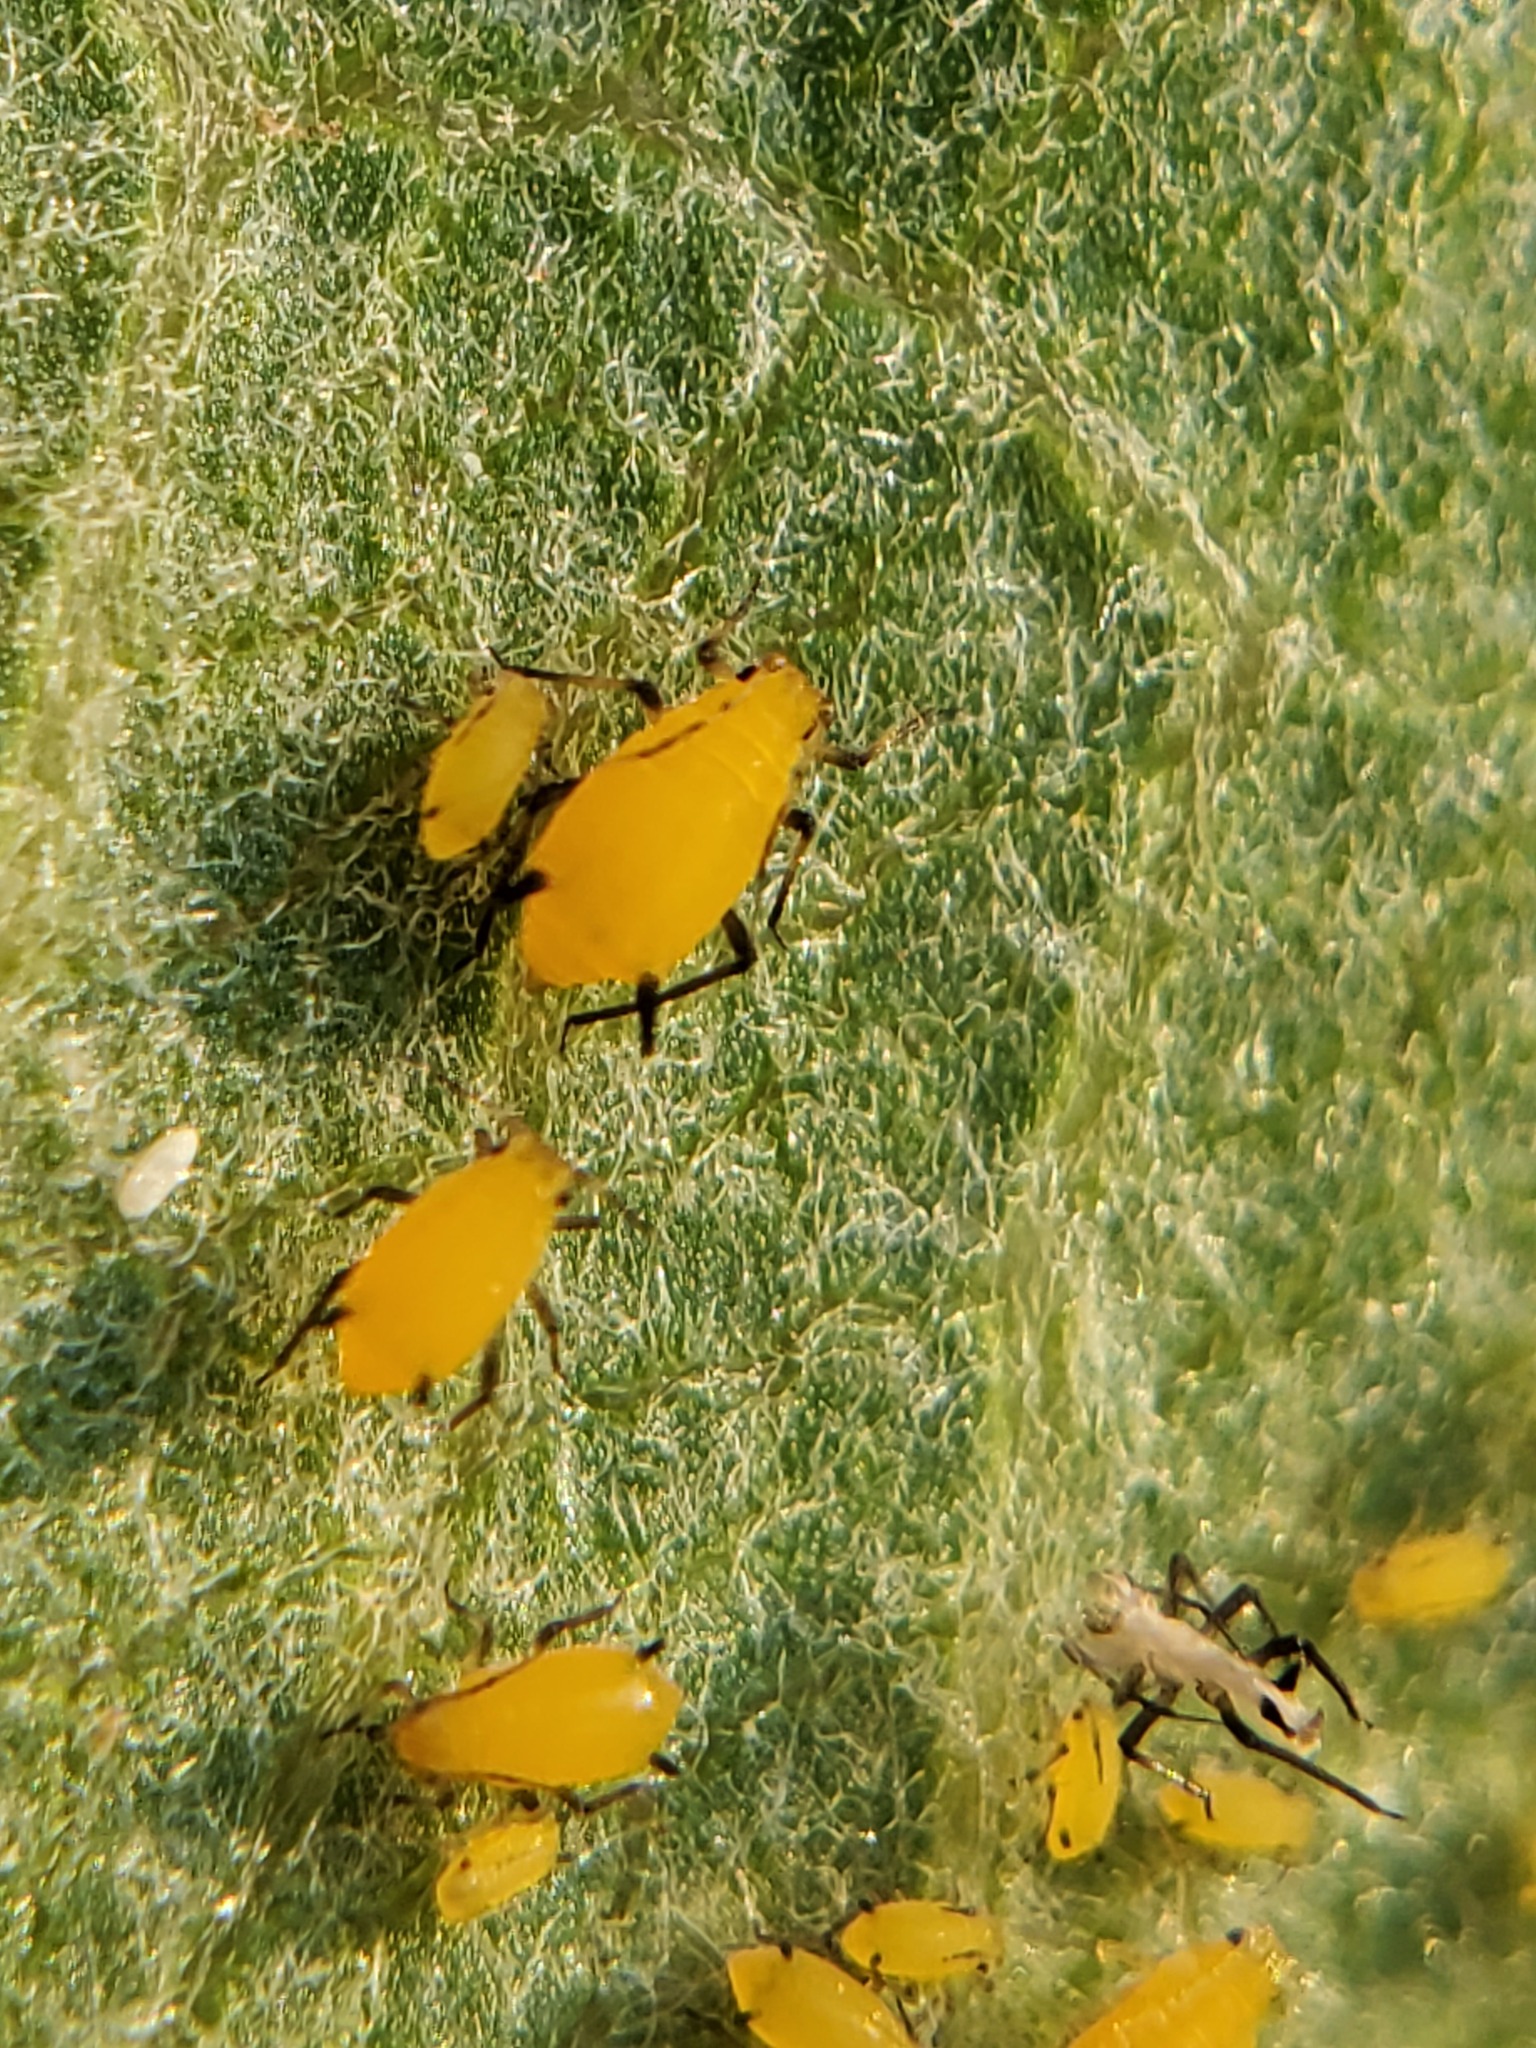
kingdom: Animalia
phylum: Arthropoda
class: Insecta
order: Hemiptera
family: Aphididae
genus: Aphis
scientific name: Aphis nerii
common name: Oleander aphid
